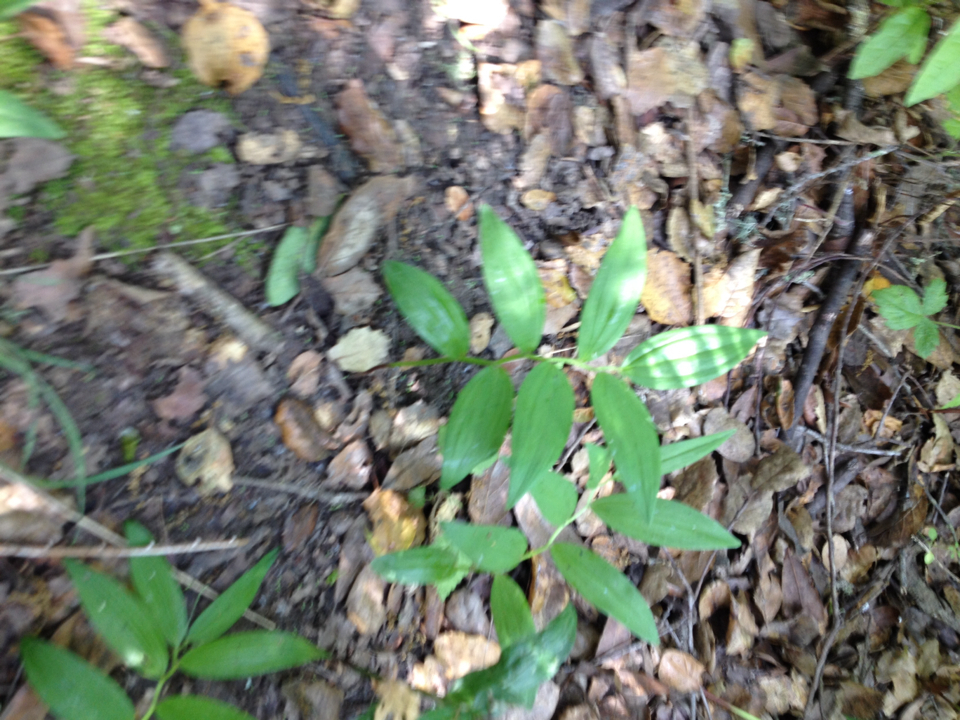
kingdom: Plantae
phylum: Tracheophyta
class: Liliopsida
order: Asparagales
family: Asparagaceae
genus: Maianthemum
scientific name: Maianthemum stellatum
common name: Little false solomon's seal
